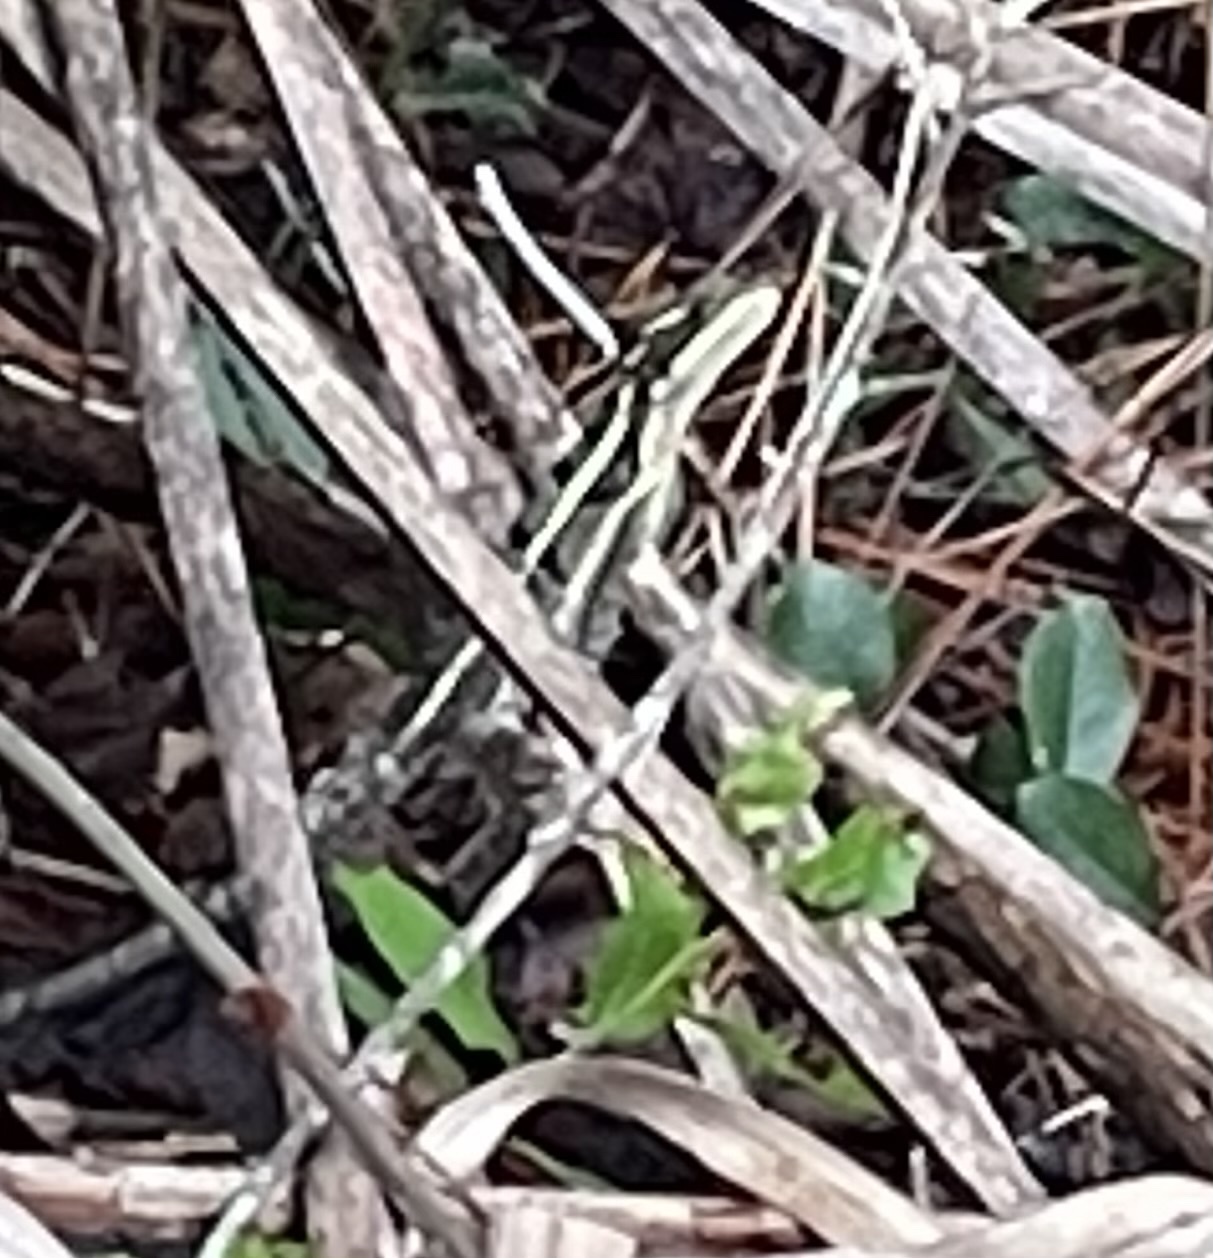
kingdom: Animalia
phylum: Chordata
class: Squamata
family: Corytophanidae
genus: Basiliscus
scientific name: Basiliscus vittatus
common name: Brown basilisk
